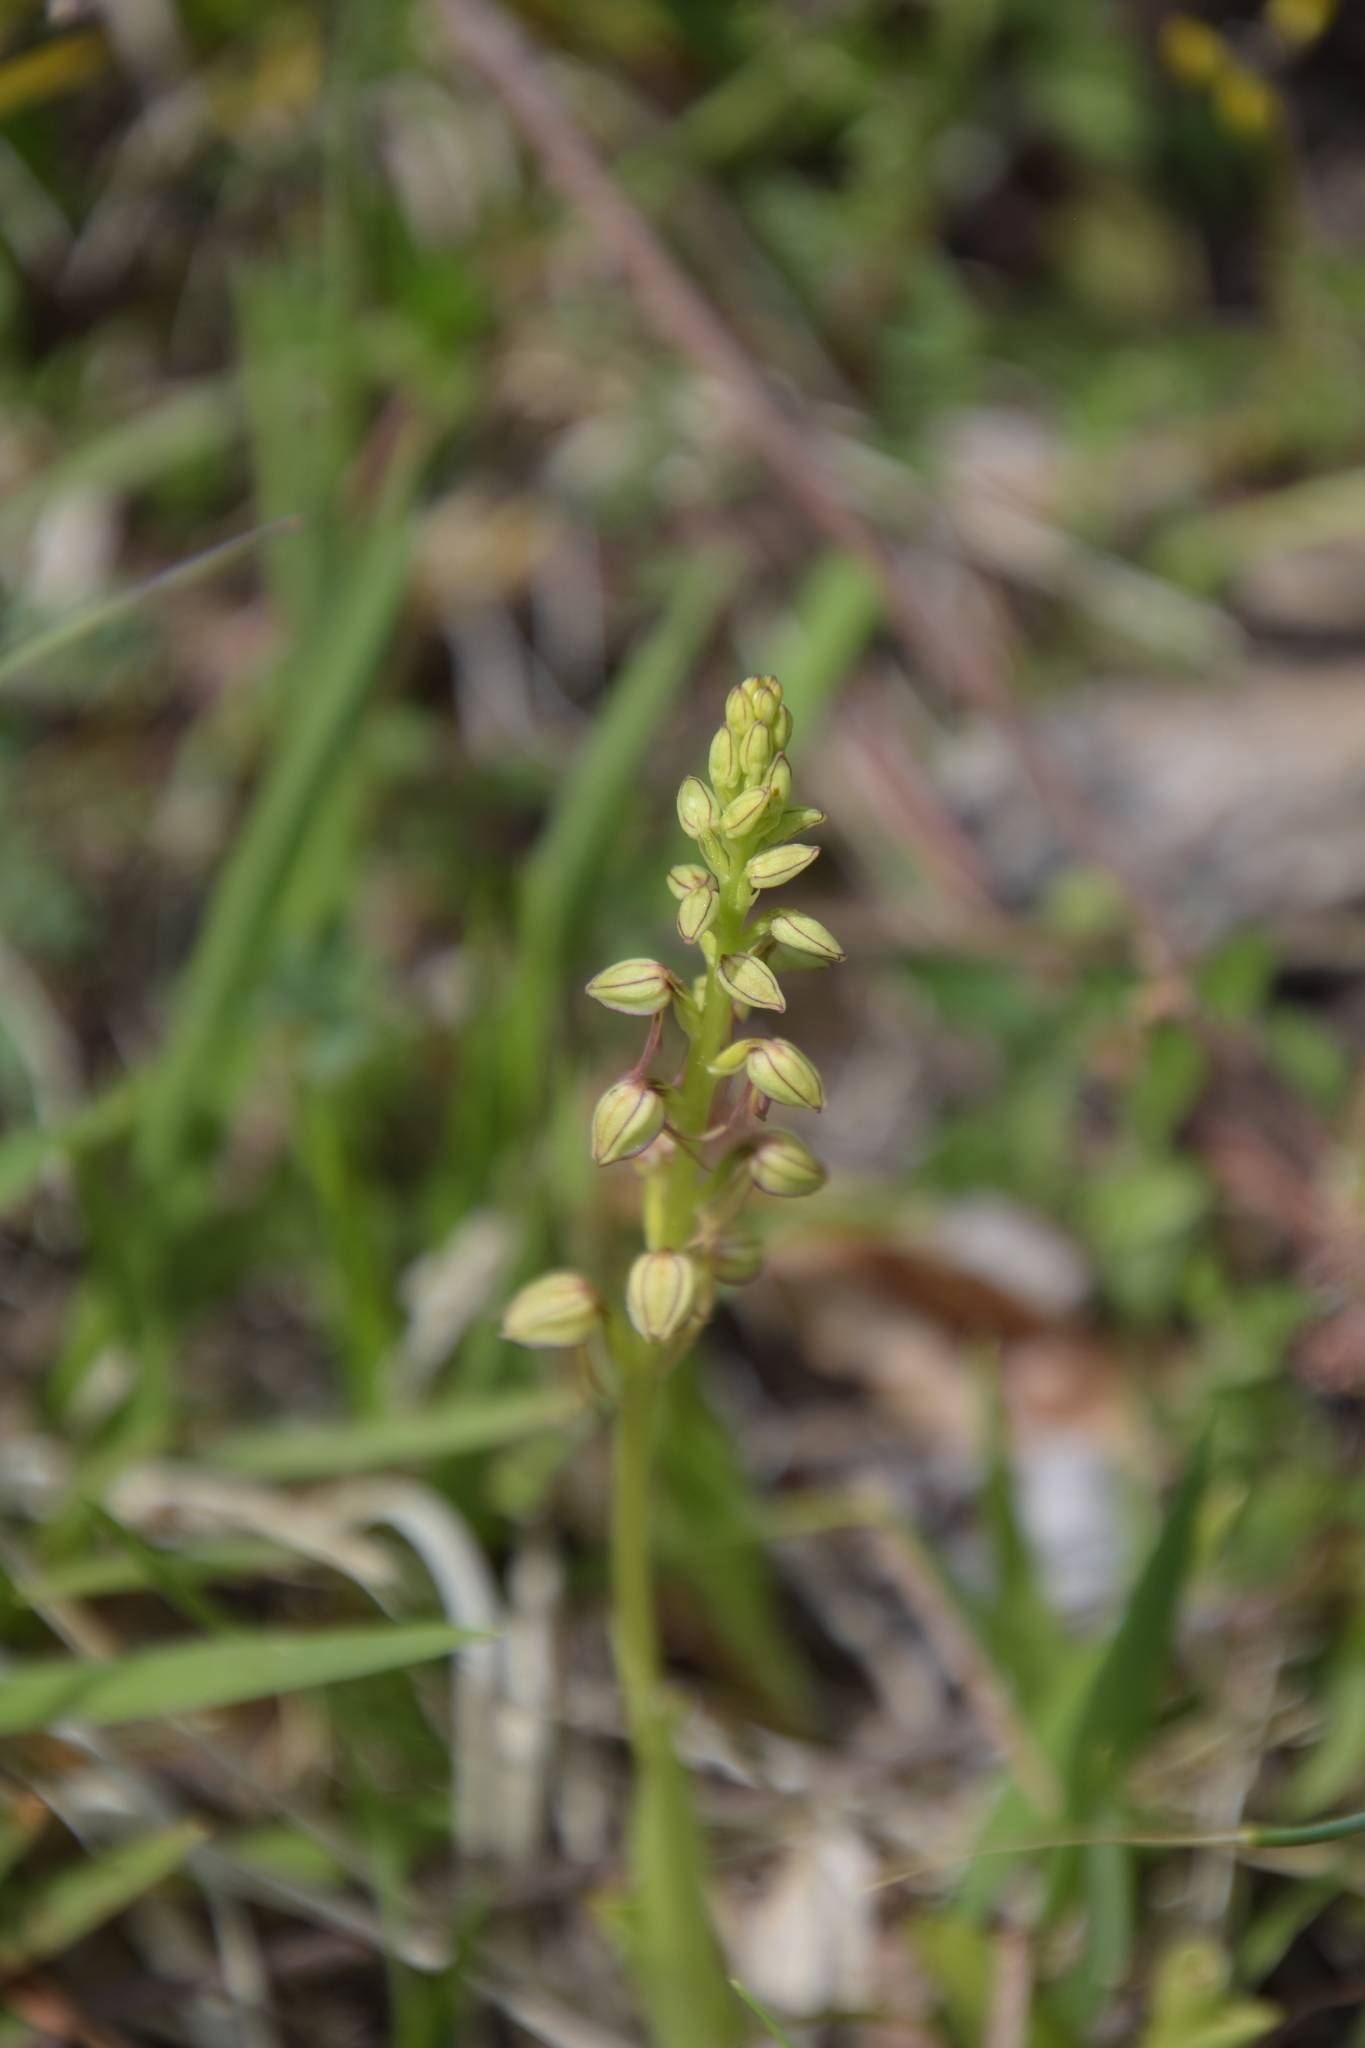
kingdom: Plantae
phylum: Tracheophyta
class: Liliopsida
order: Asparagales
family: Orchidaceae
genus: Orchis
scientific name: Orchis anthropophora
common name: Man orchid
